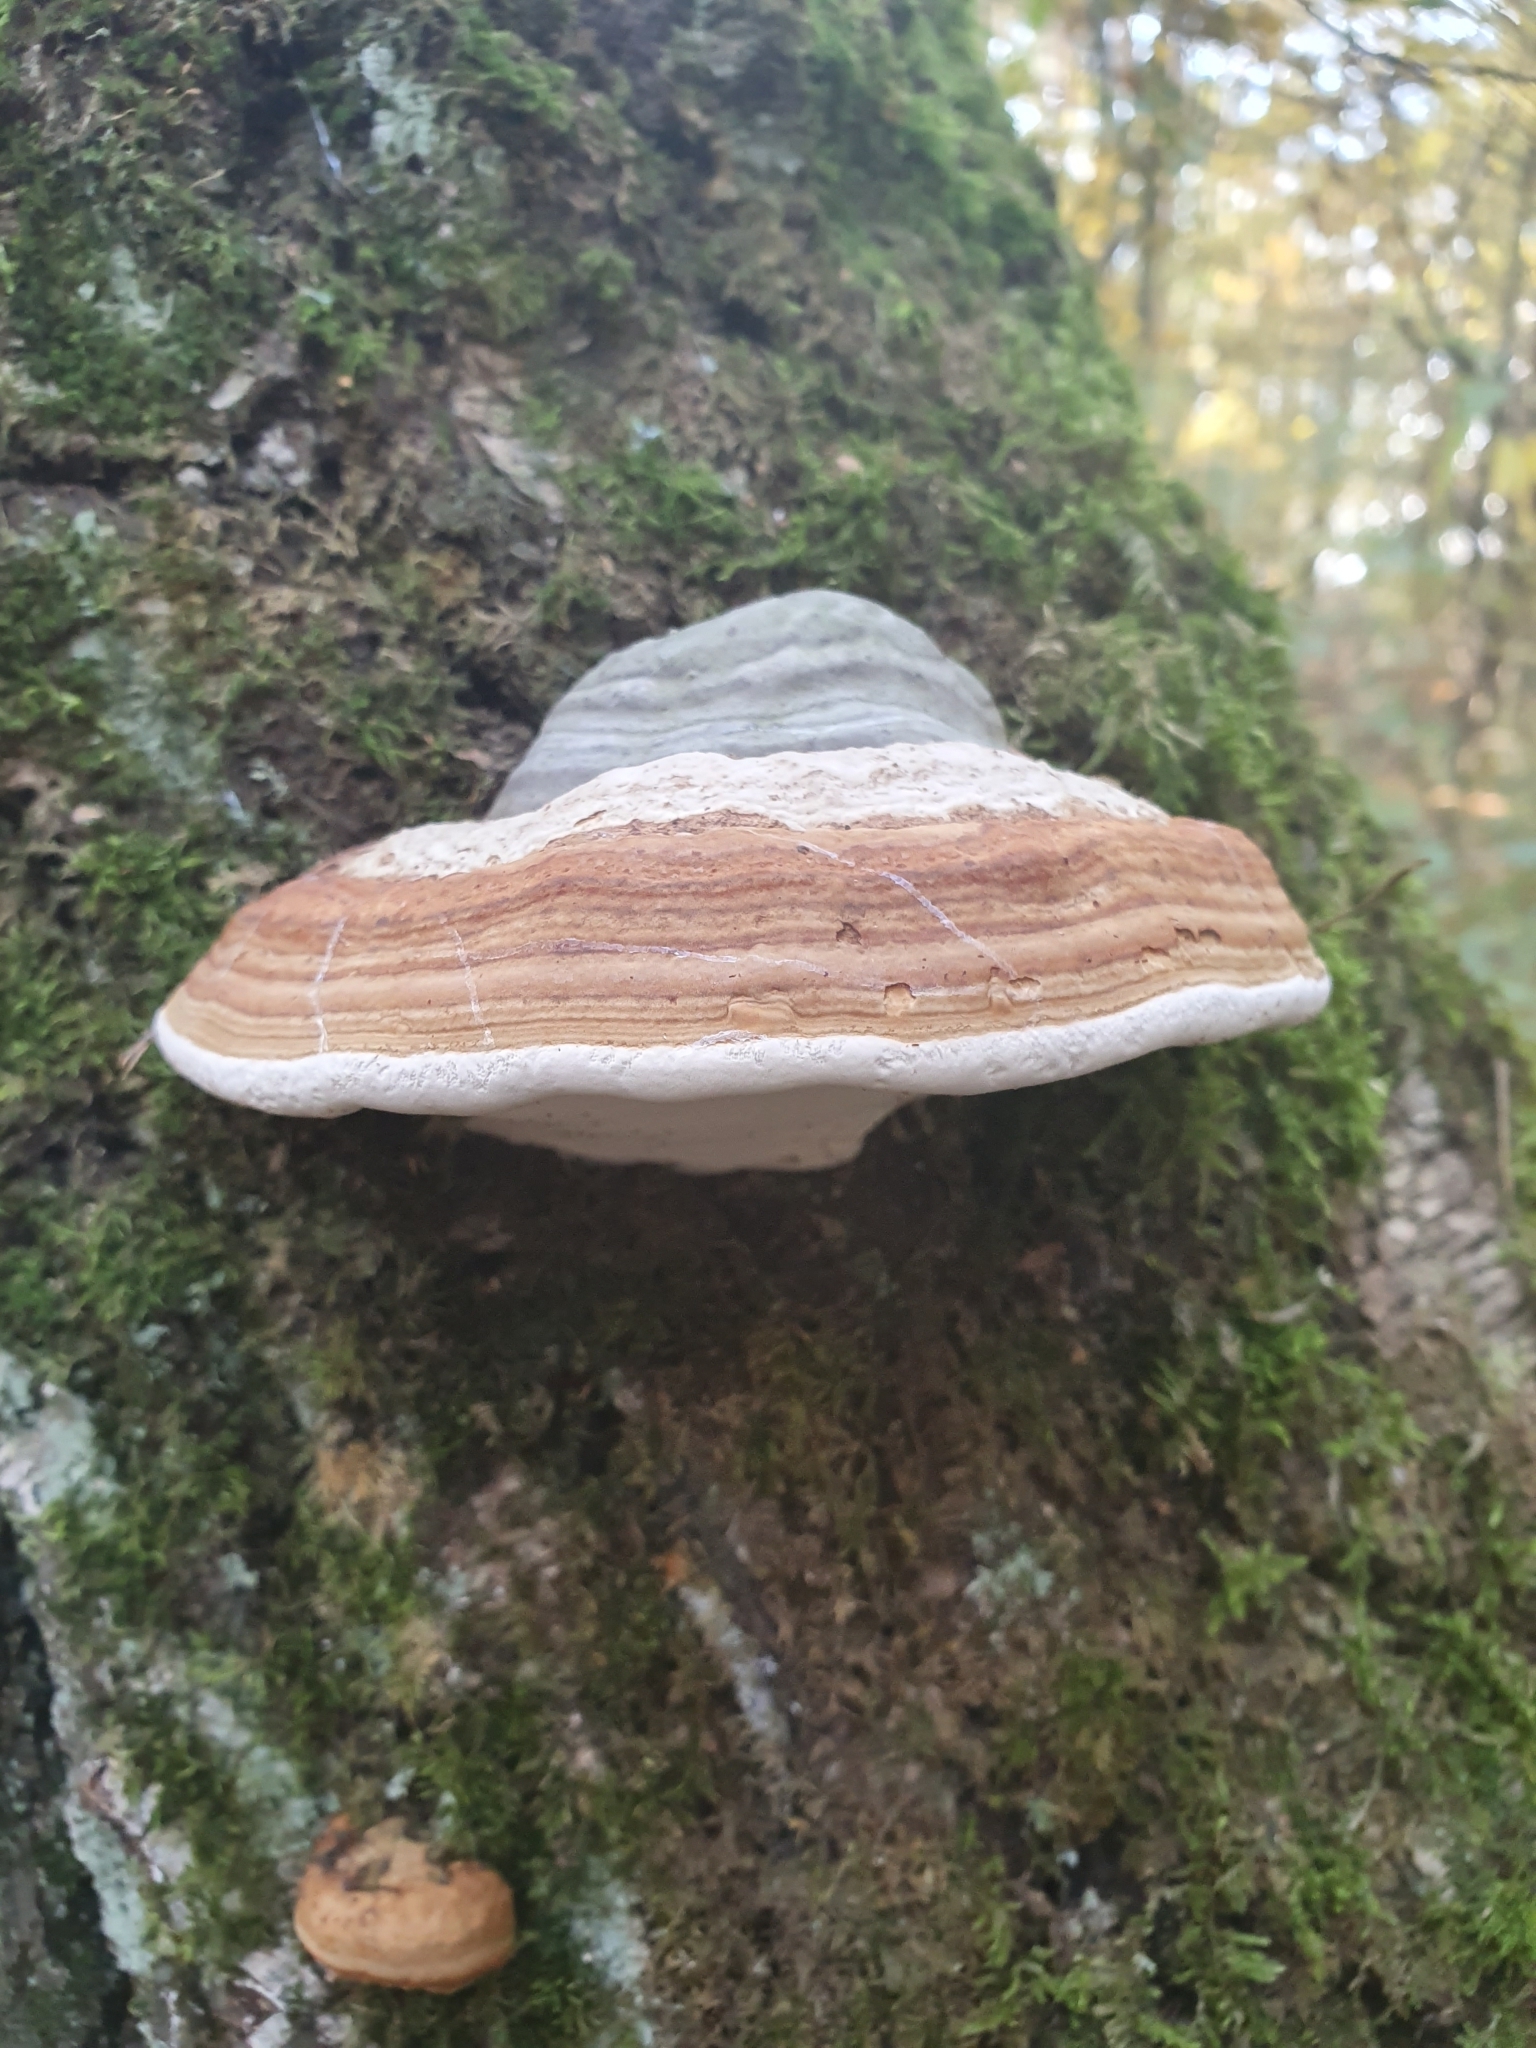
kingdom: Fungi
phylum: Basidiomycota
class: Agaricomycetes
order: Polyporales
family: Polyporaceae
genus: Fomes
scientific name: Fomes fomentarius
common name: Hoof fungus
